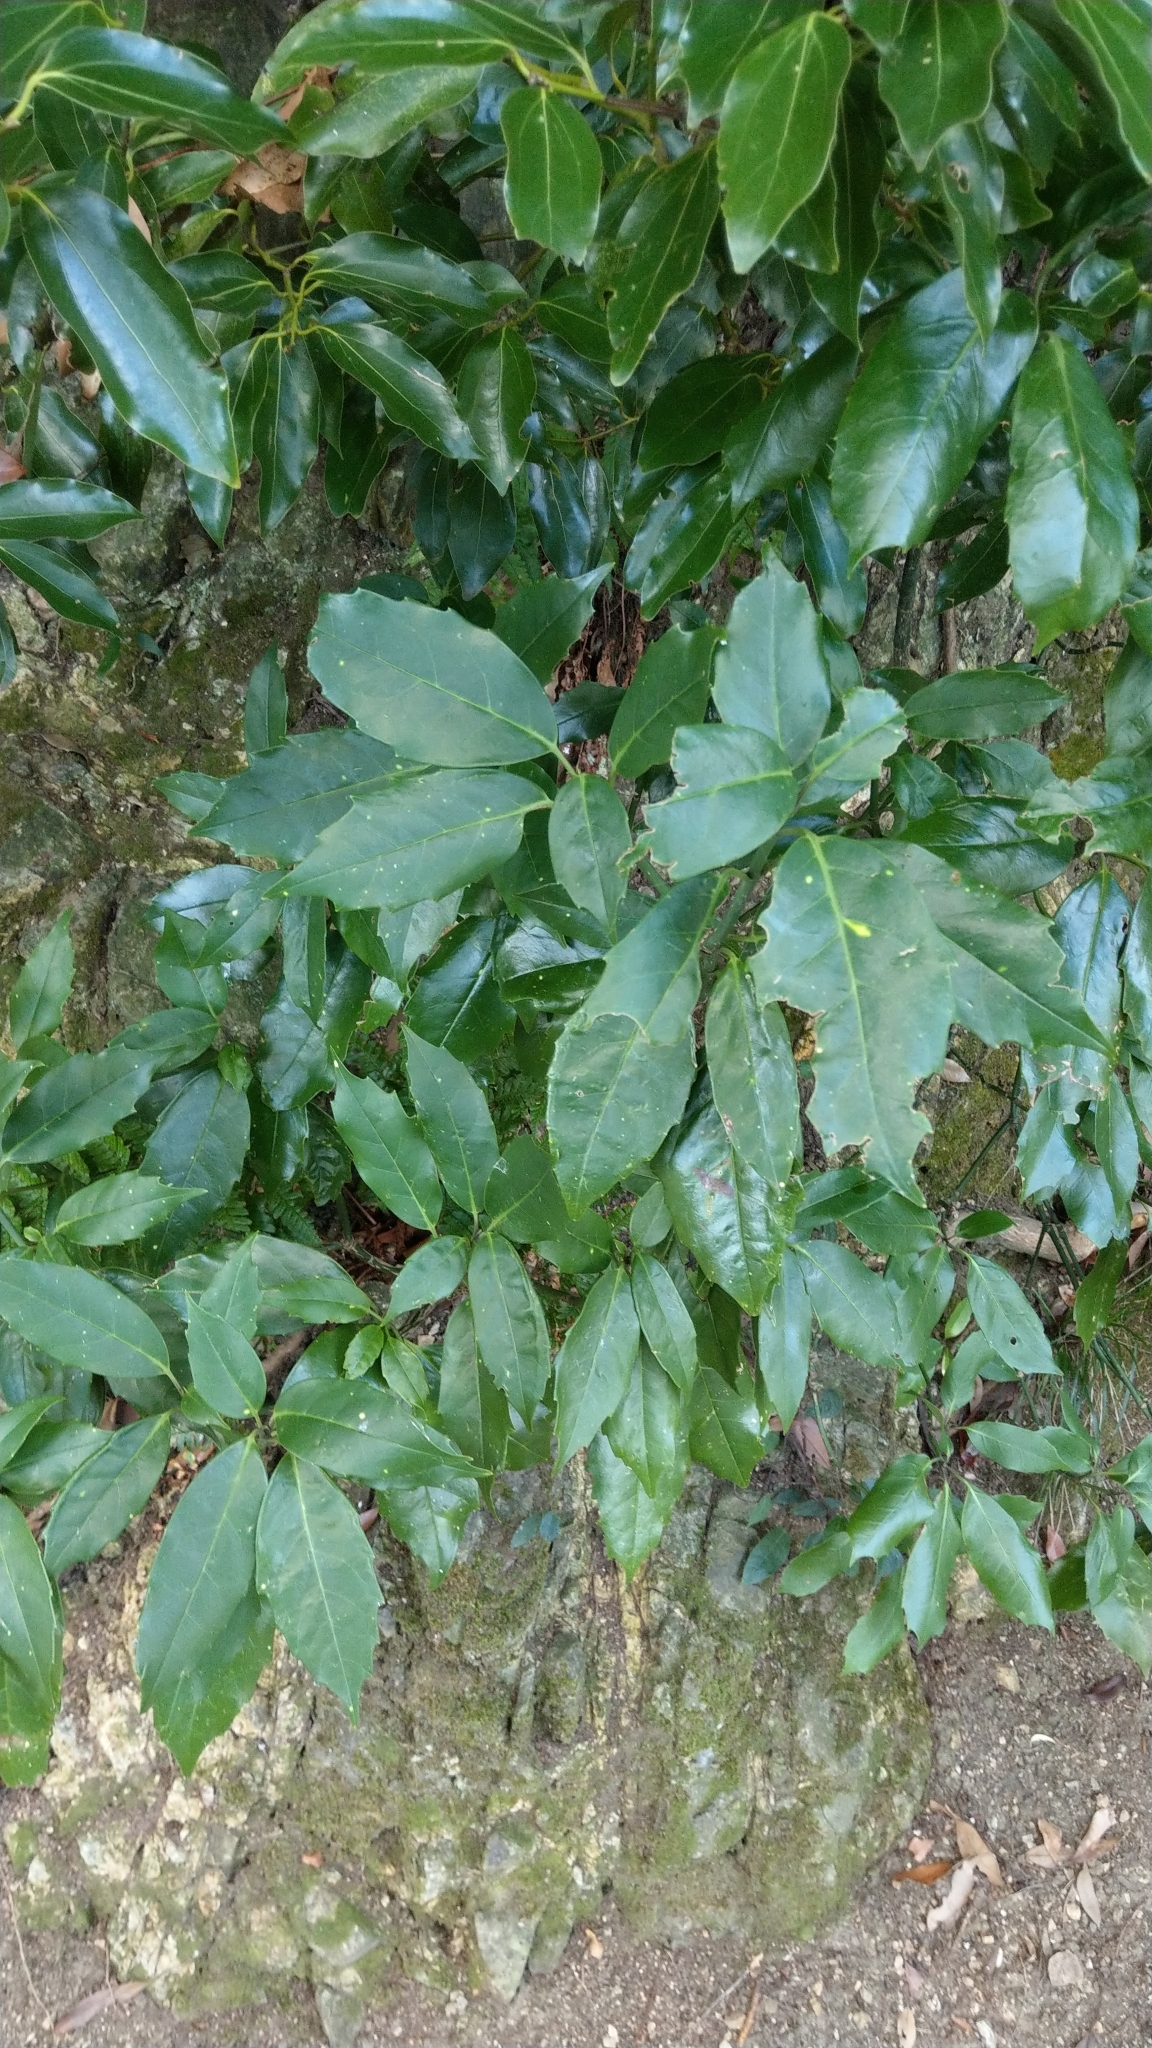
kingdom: Plantae
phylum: Tracheophyta
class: Magnoliopsida
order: Garryales
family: Garryaceae
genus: Aucuba
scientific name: Aucuba japonica
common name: Spotted-laurel
